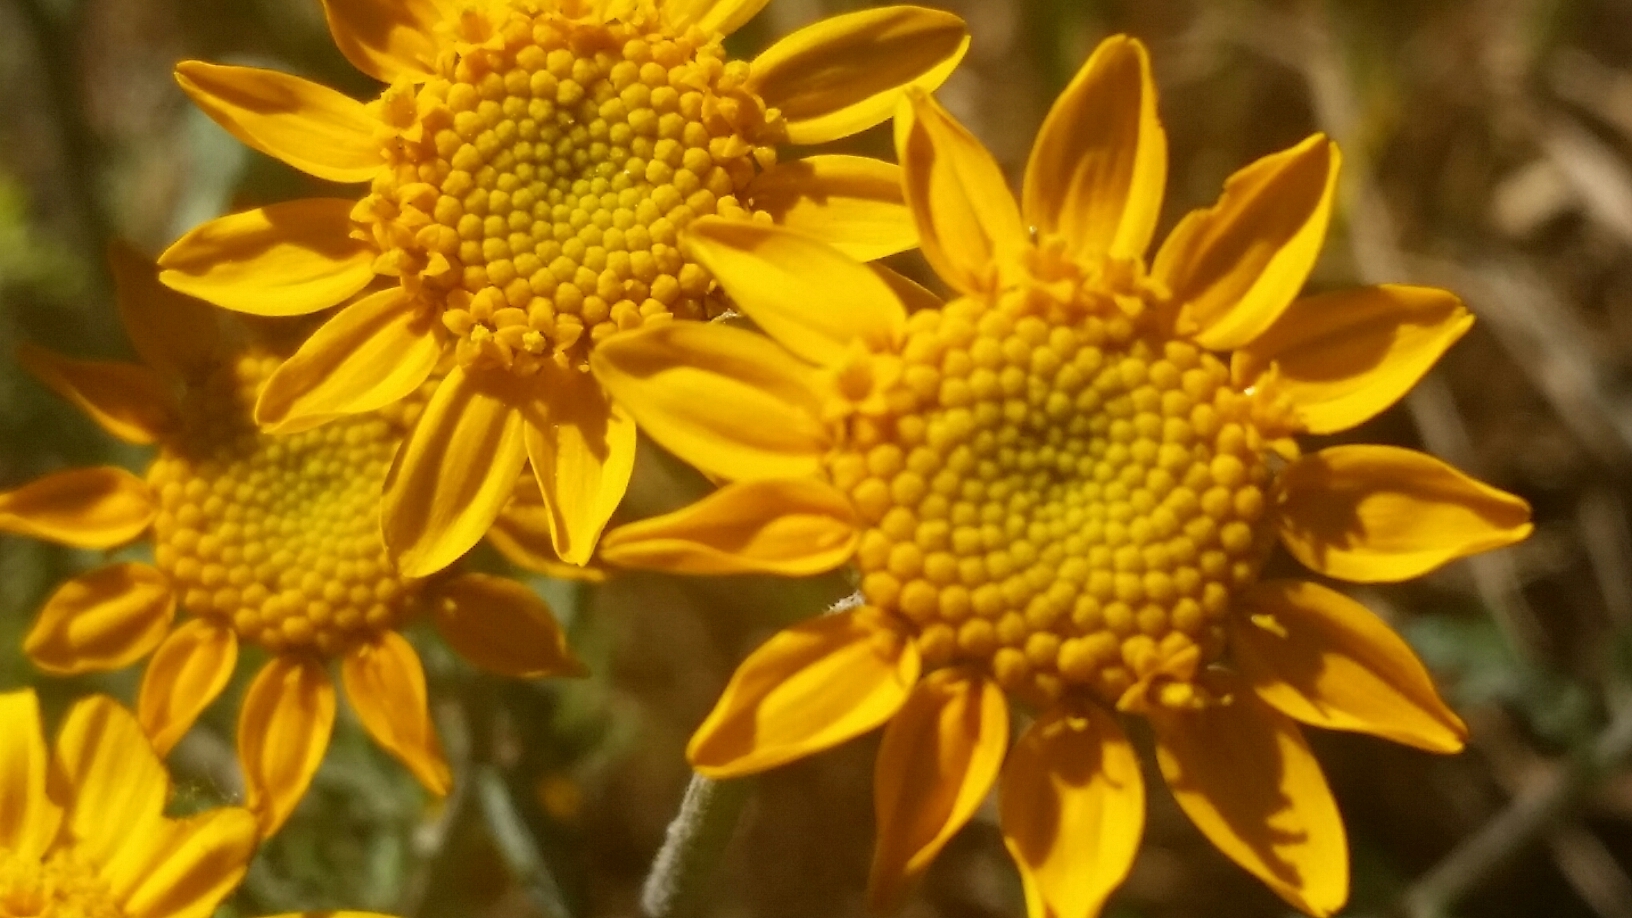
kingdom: Plantae
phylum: Tracheophyta
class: Magnoliopsida
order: Asterales
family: Asteraceae
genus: Eriophyllum
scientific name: Eriophyllum lanatum
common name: Common woolly-sunflower
